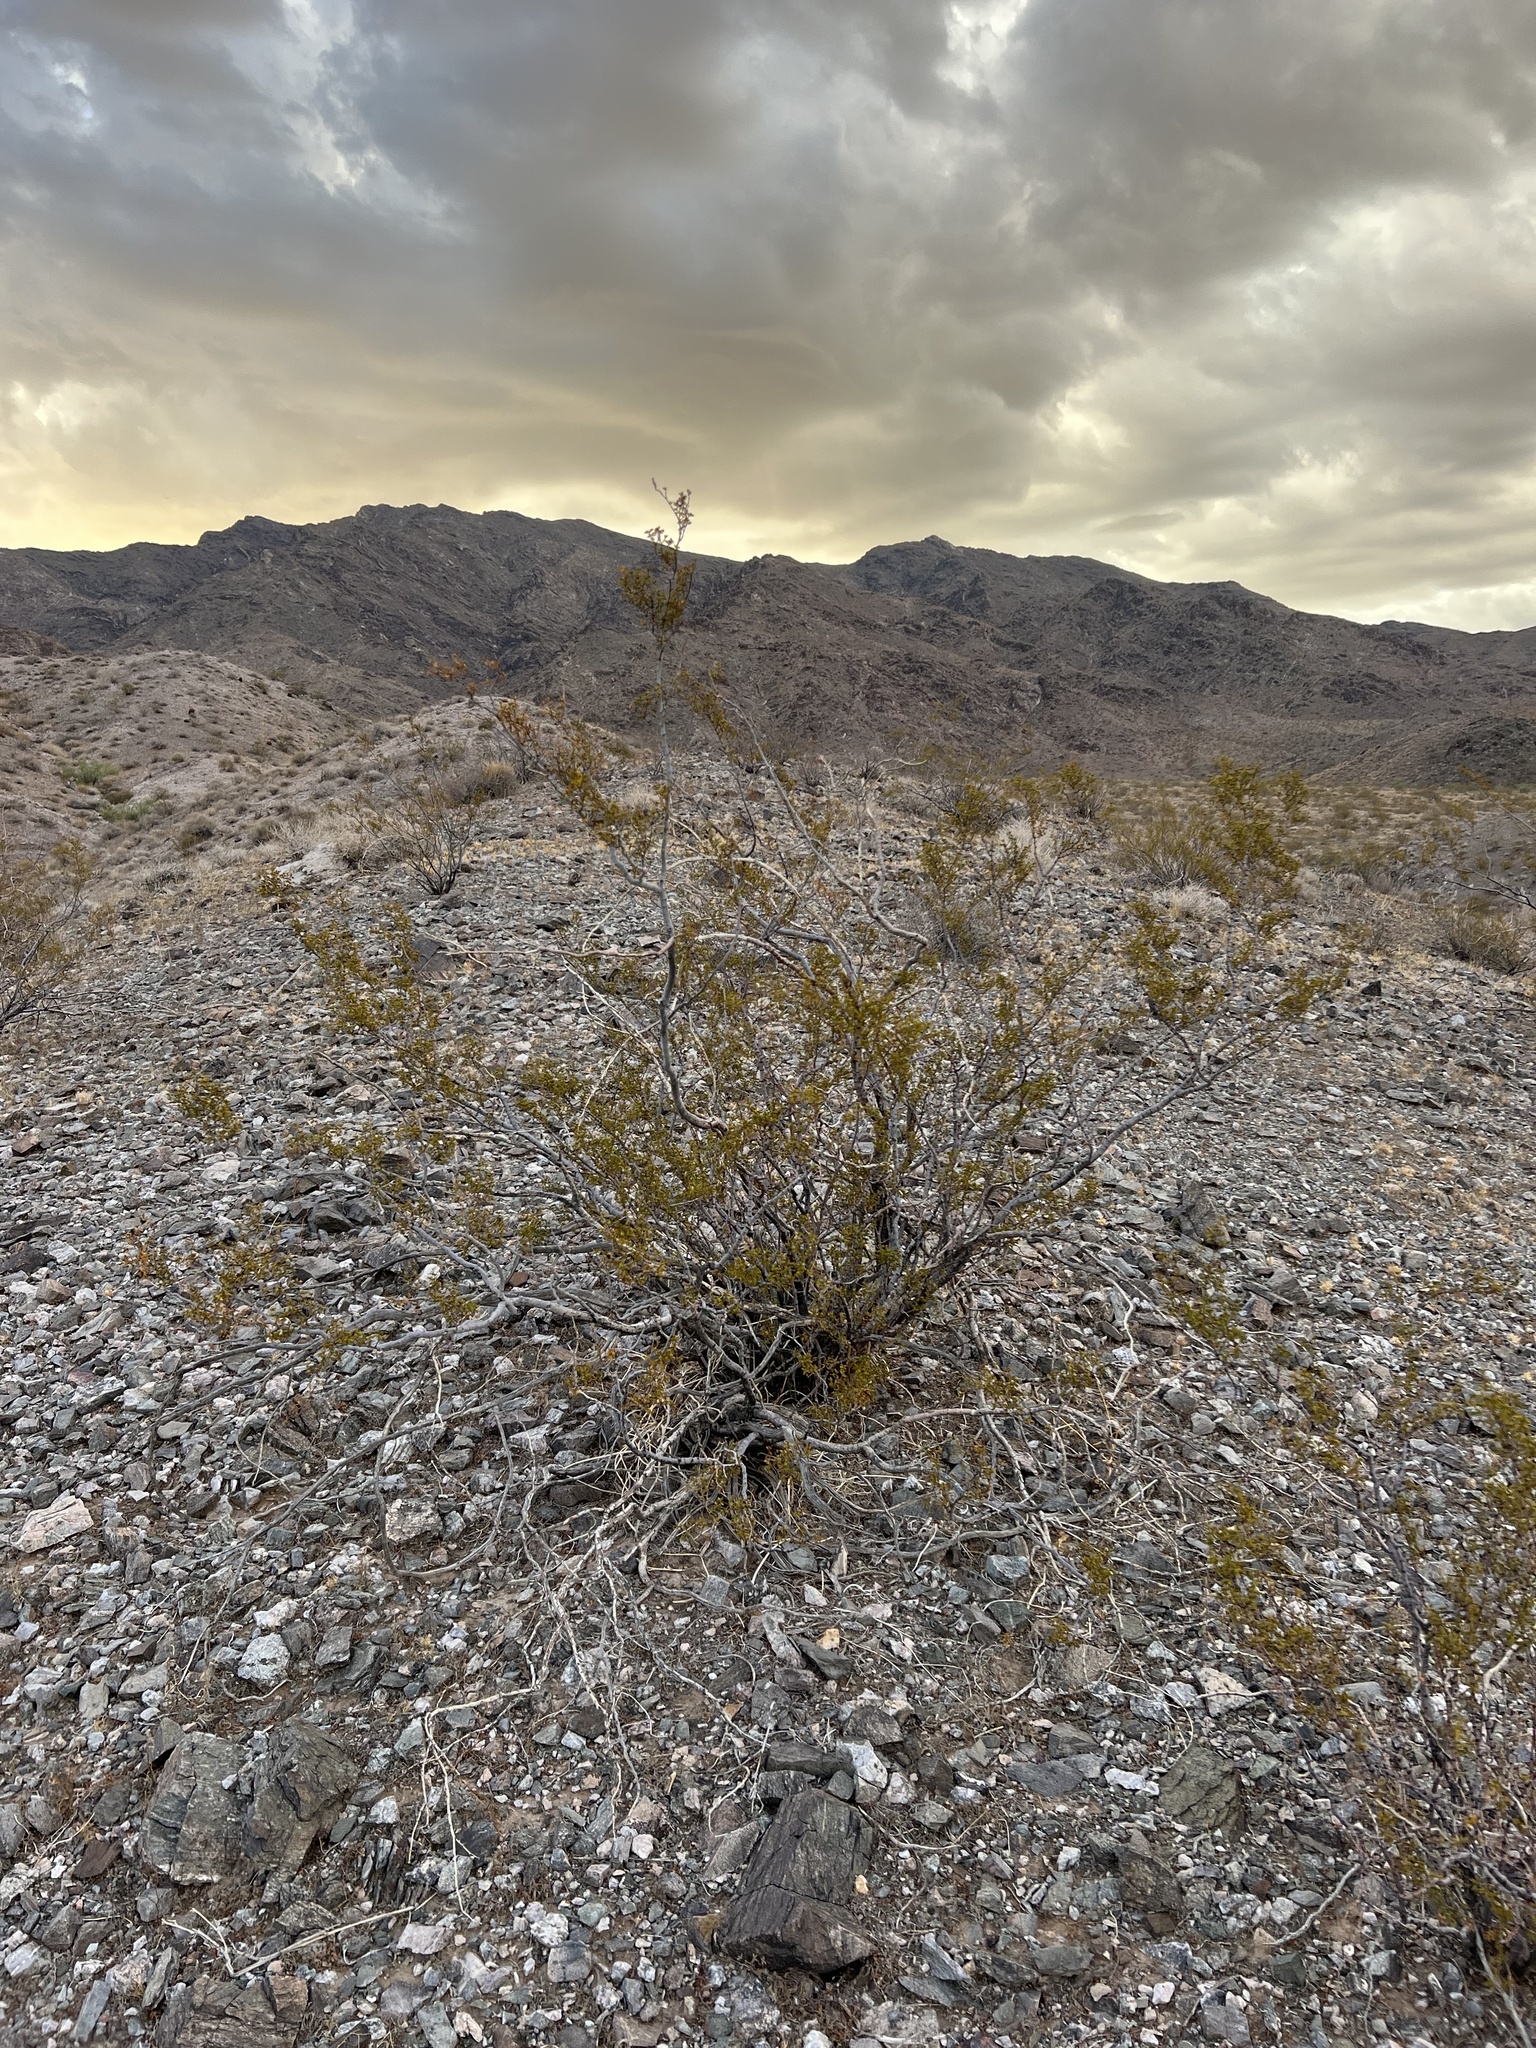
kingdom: Plantae
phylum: Tracheophyta
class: Magnoliopsida
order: Zygophyllales
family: Zygophyllaceae
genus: Larrea
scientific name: Larrea tridentata
